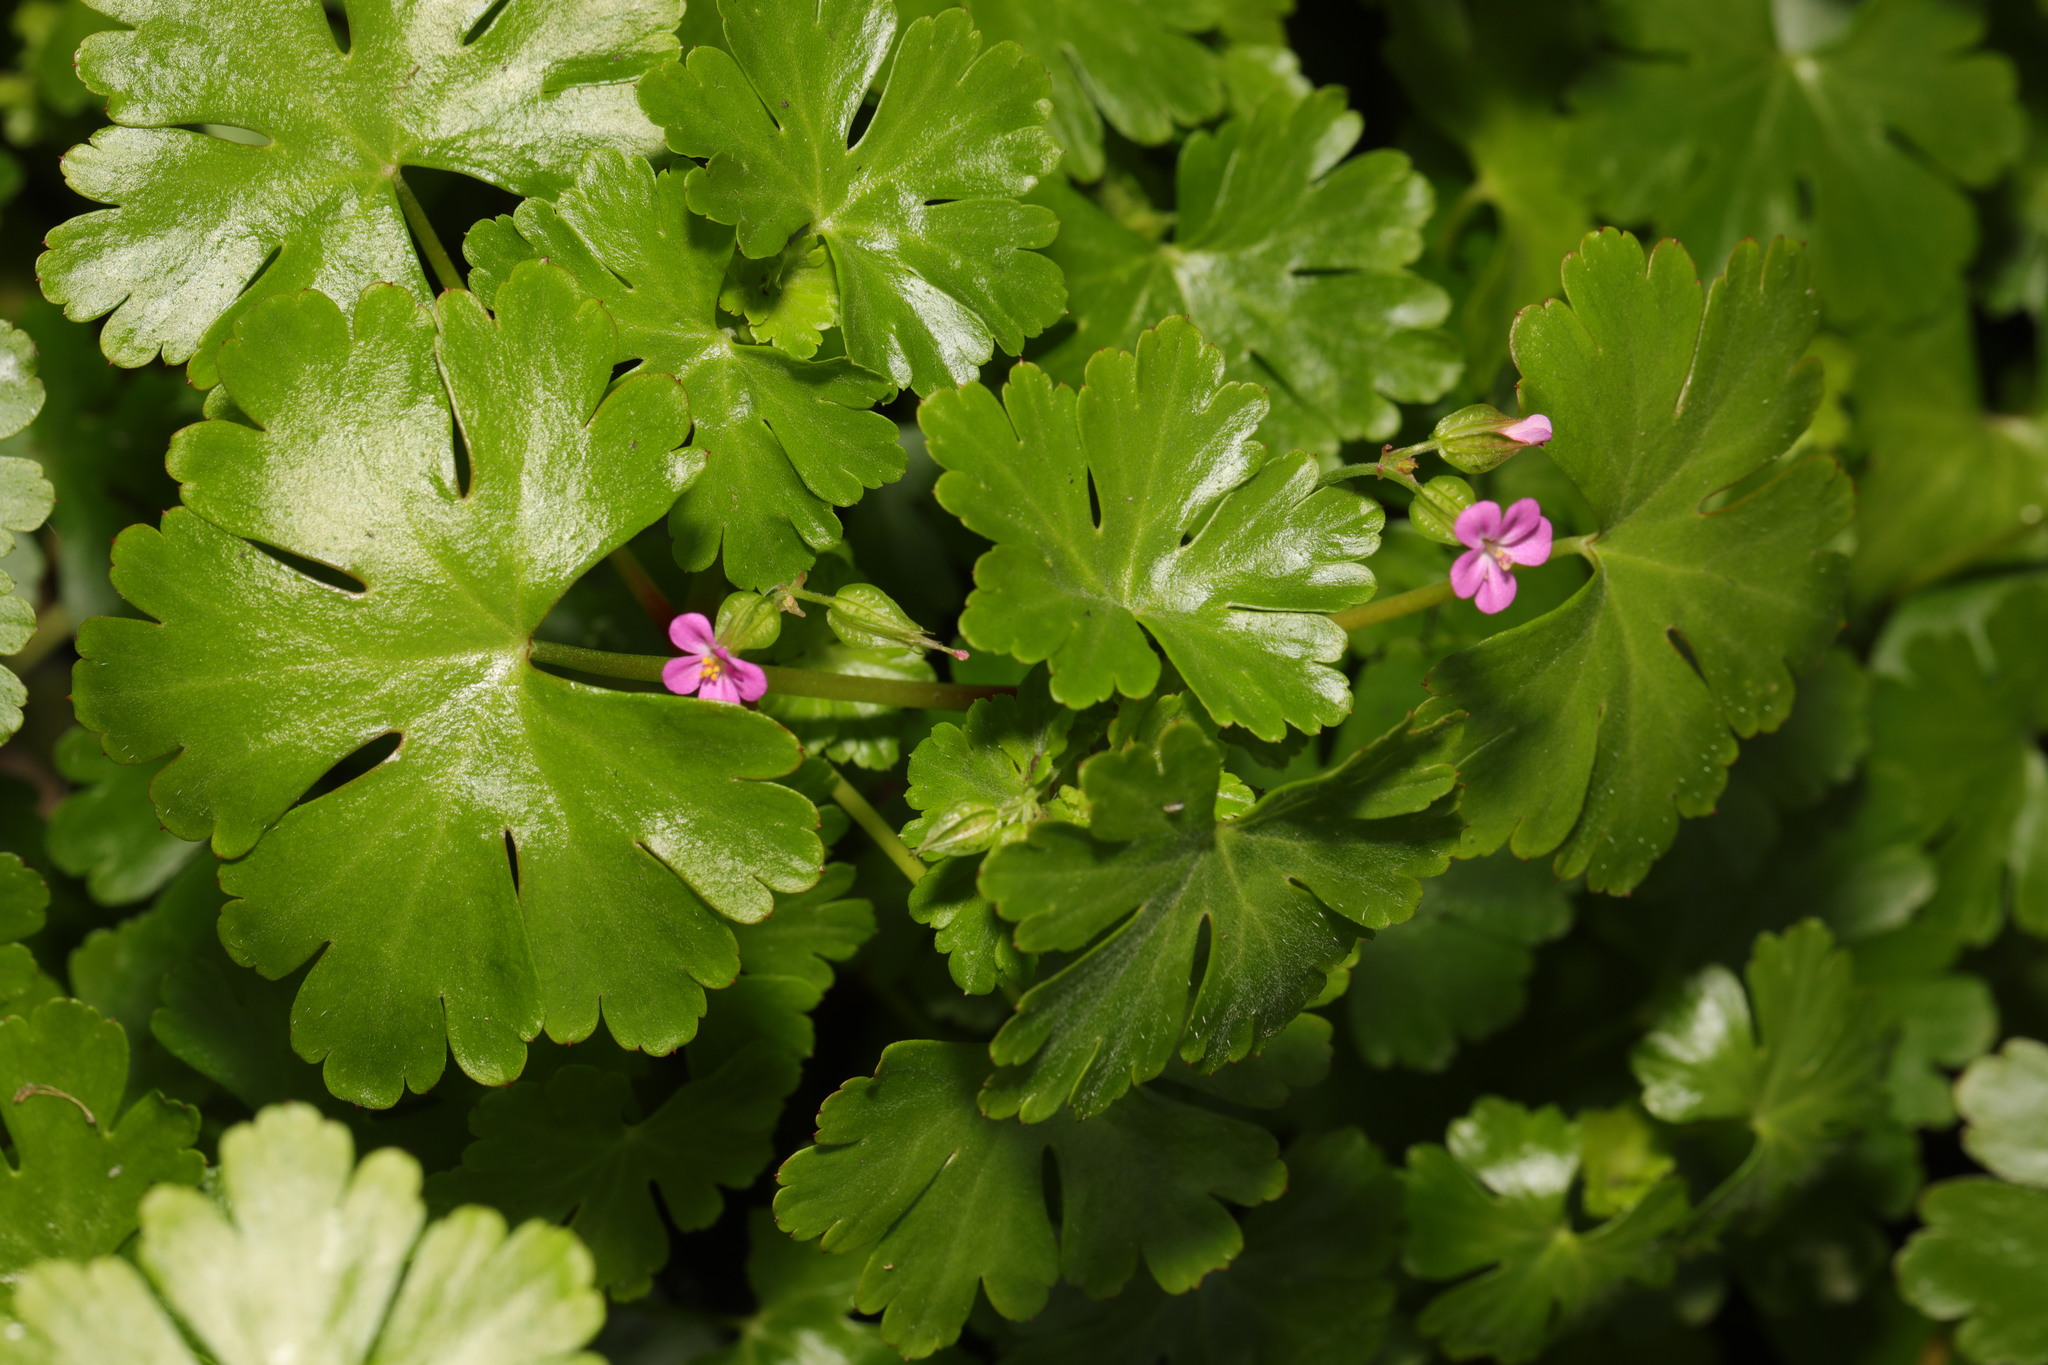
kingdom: Plantae
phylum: Tracheophyta
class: Magnoliopsida
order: Geraniales
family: Geraniaceae
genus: Geranium
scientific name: Geranium lucidum
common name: Shining crane's-bill
